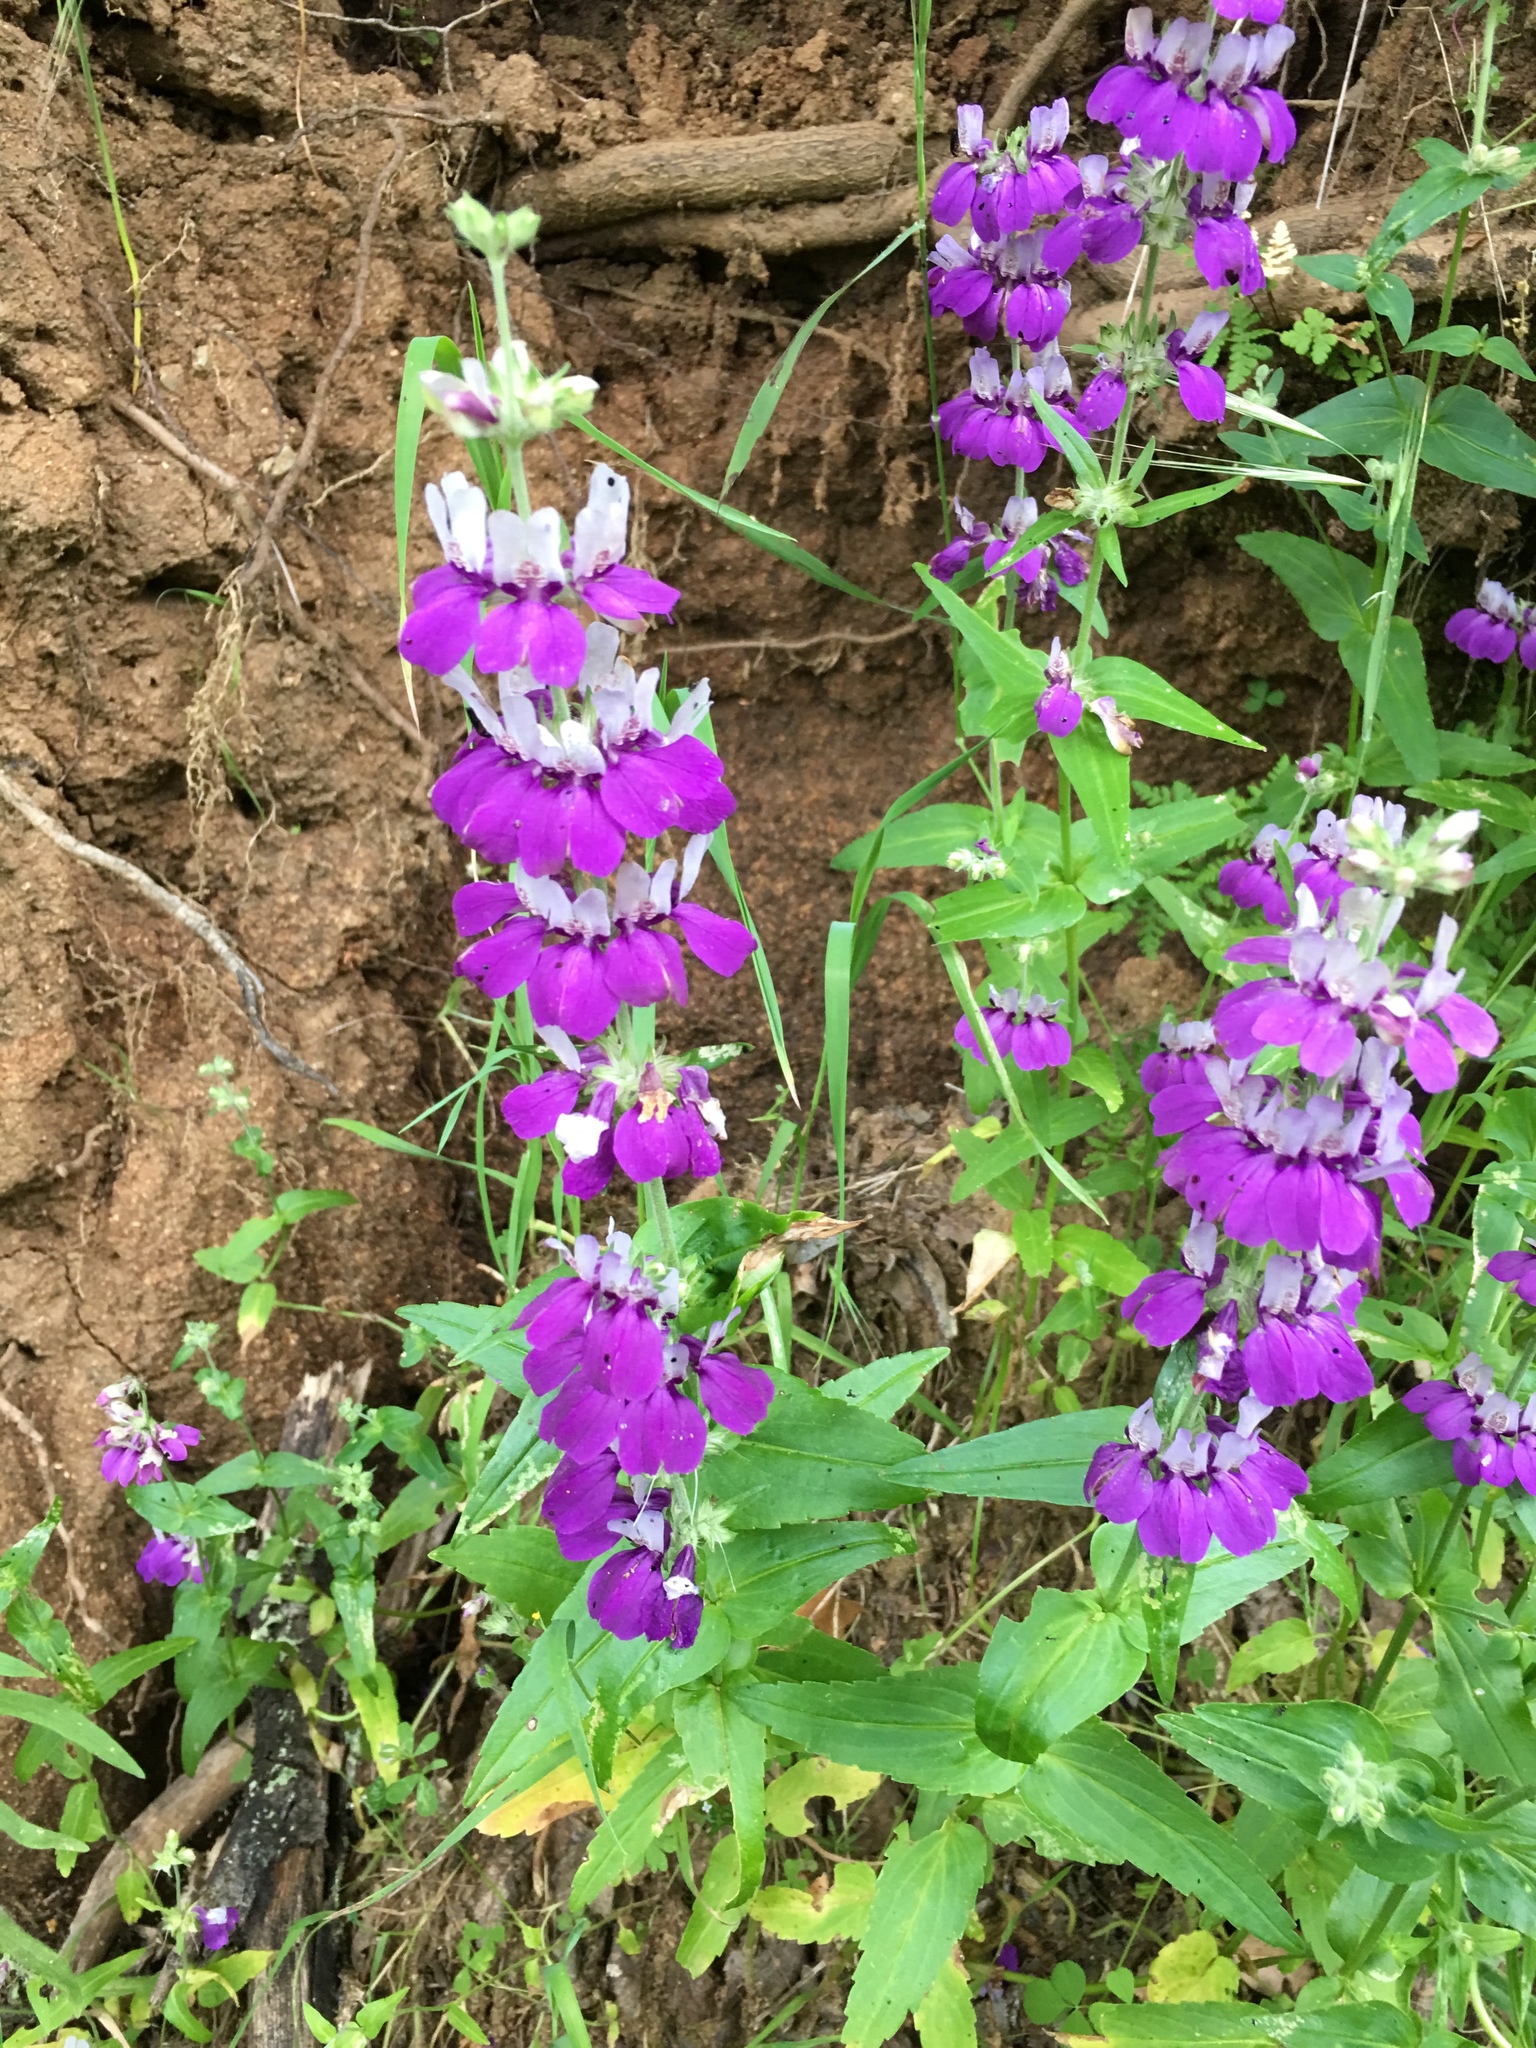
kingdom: Plantae
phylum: Tracheophyta
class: Magnoliopsida
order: Lamiales
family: Plantaginaceae
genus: Collinsia
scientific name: Collinsia heterophylla
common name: Chinese-houses
